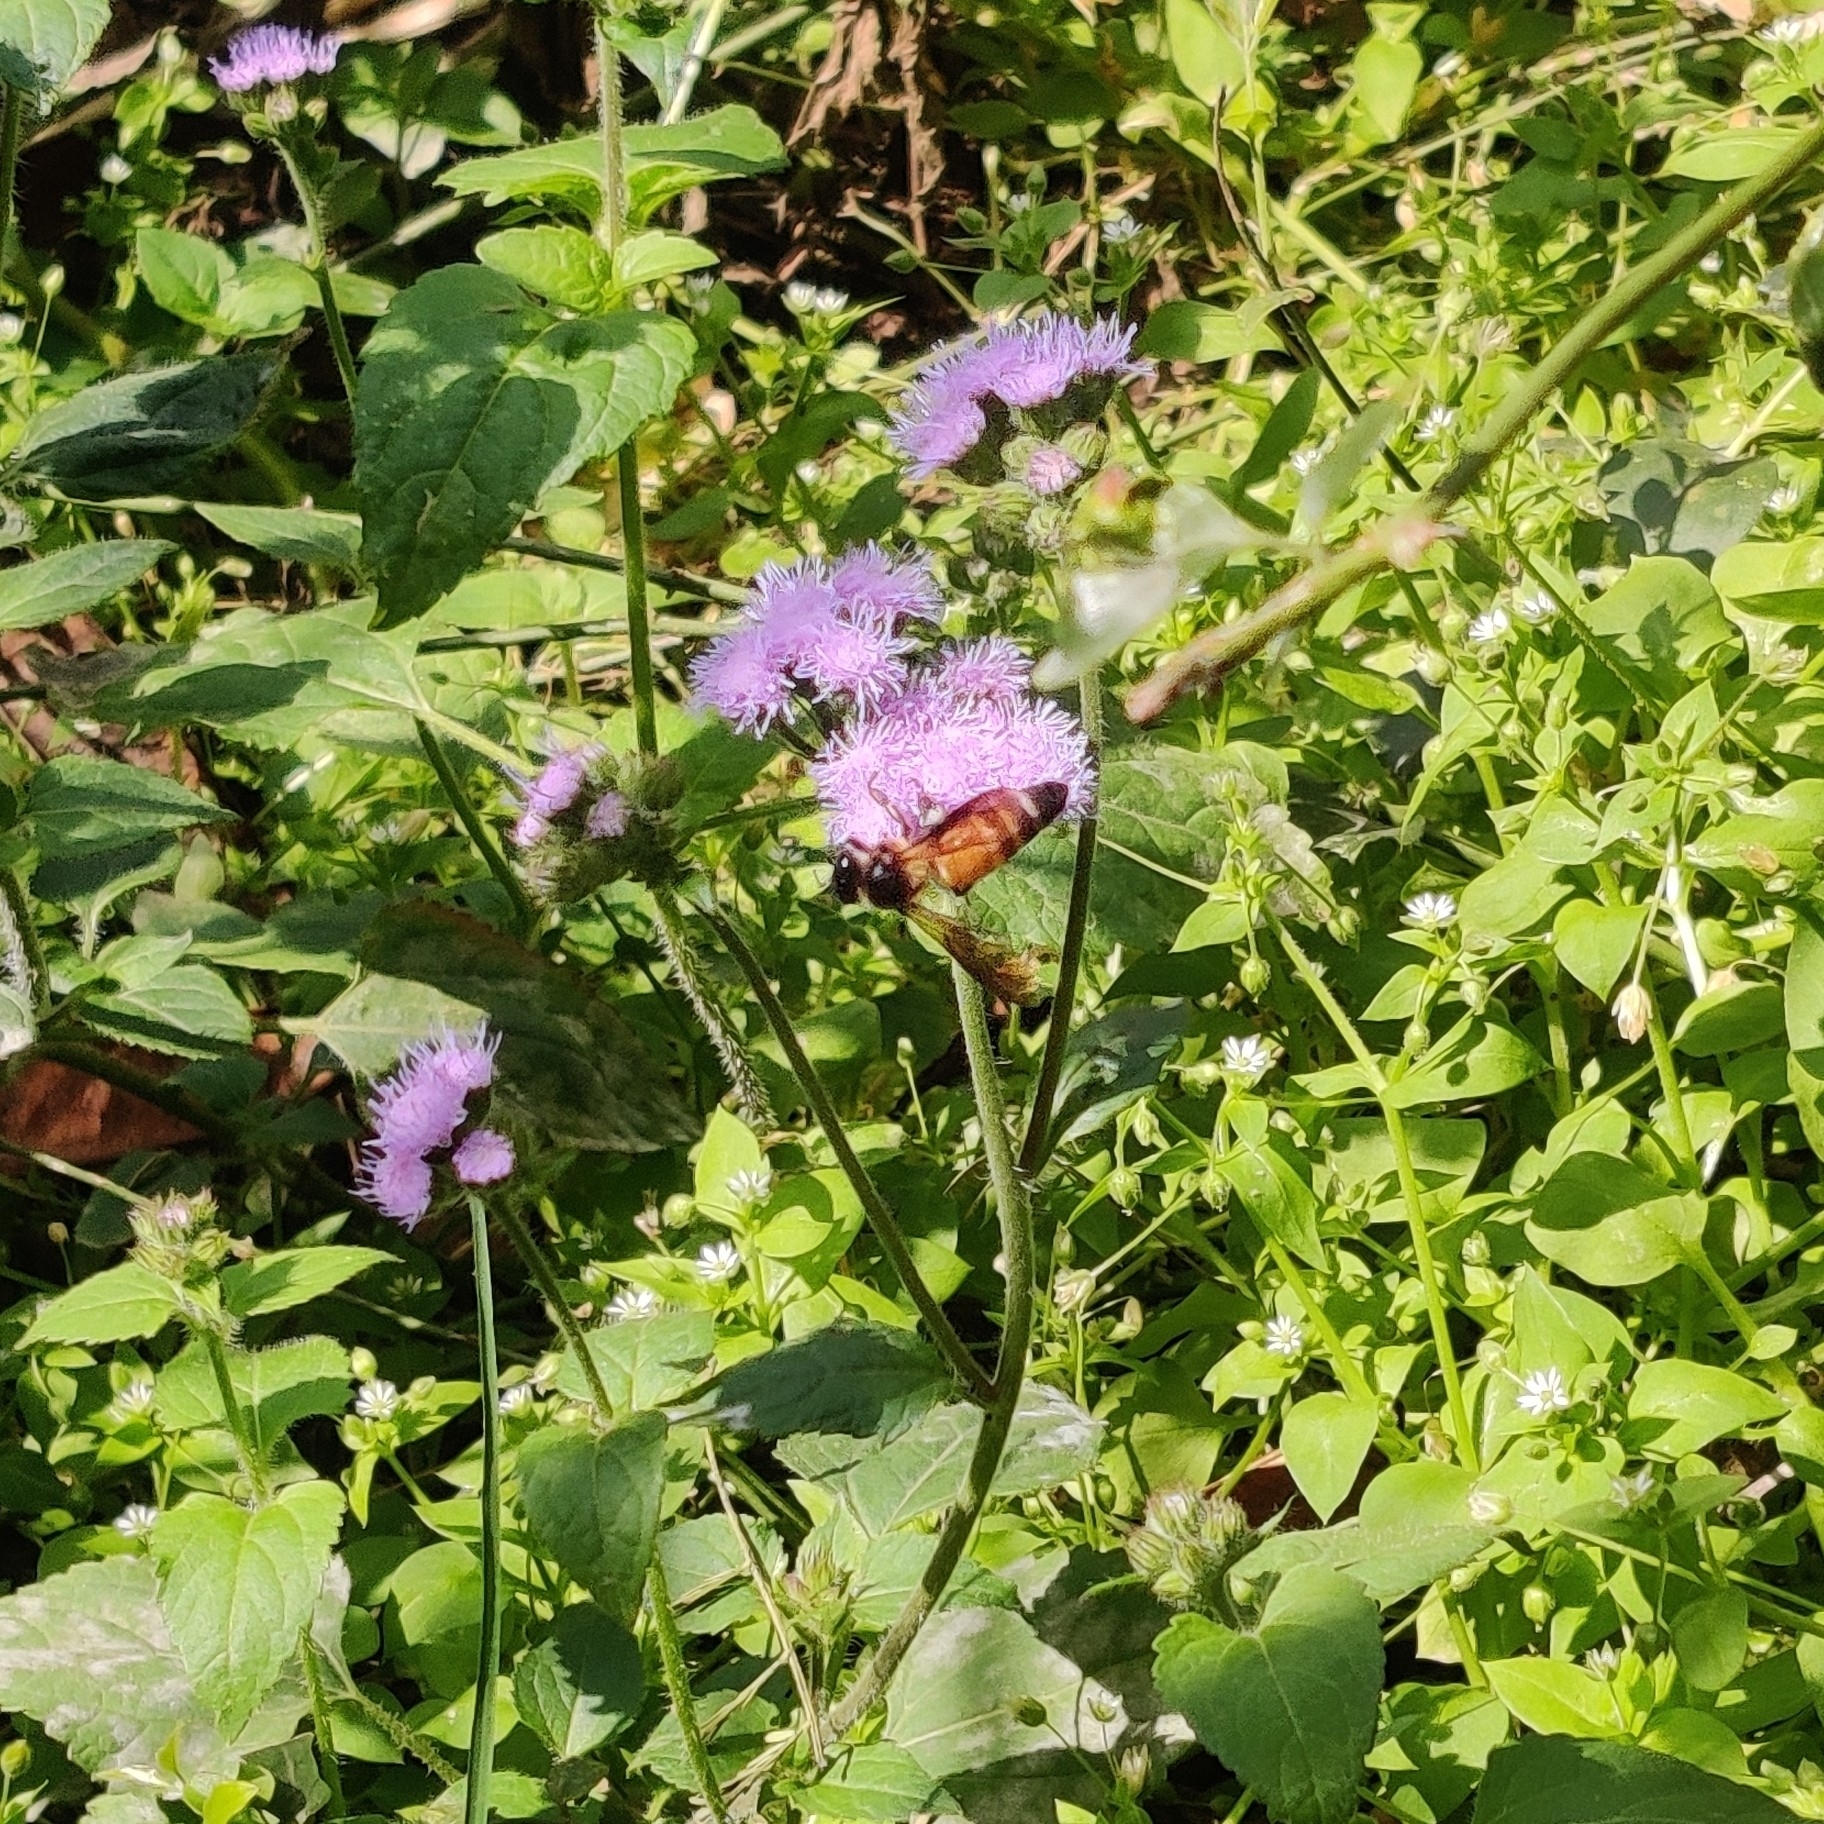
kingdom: Animalia
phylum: Arthropoda
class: Insecta
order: Hymenoptera
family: Apidae
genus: Apis
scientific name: Apis dorsata
